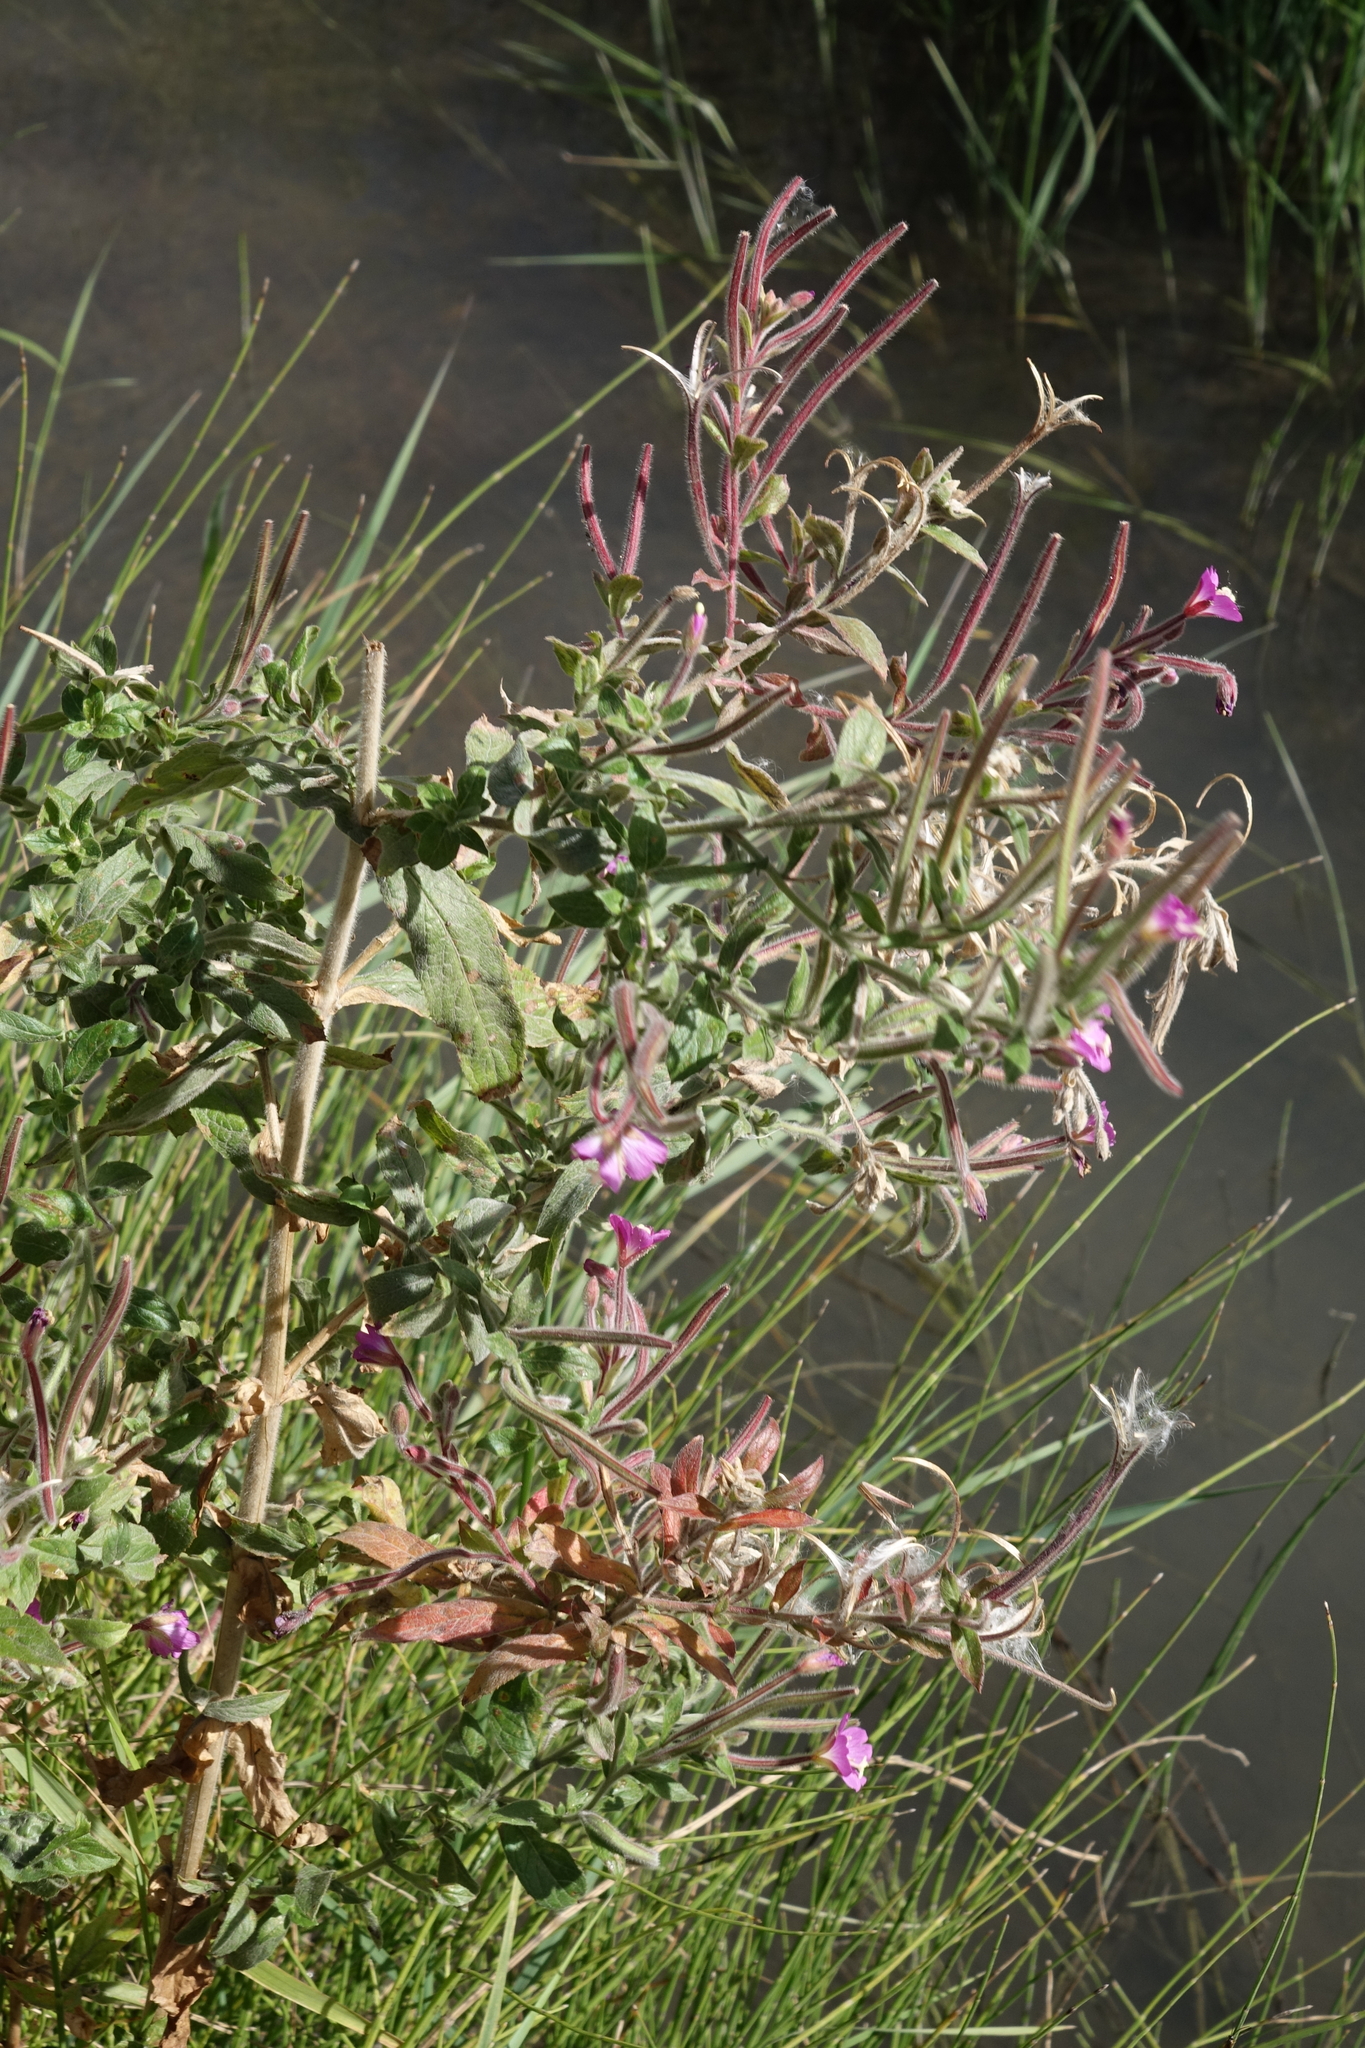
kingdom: Plantae
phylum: Tracheophyta
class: Magnoliopsida
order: Myrtales
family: Onagraceae
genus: Epilobium
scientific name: Epilobium hirsutum
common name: Great willowherb
